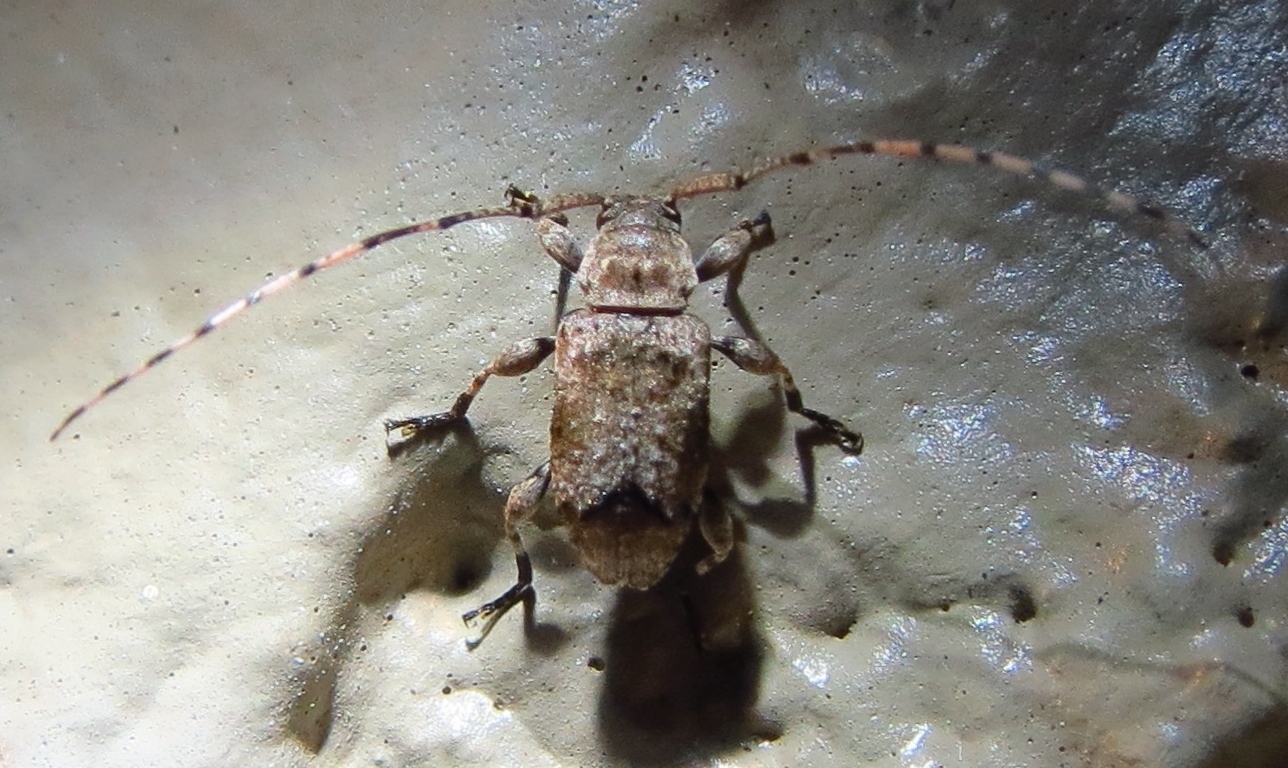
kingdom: Animalia
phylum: Arthropoda
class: Insecta
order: Coleoptera
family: Cerambycidae
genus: Sternidius
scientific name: Sternidius mimeticus
